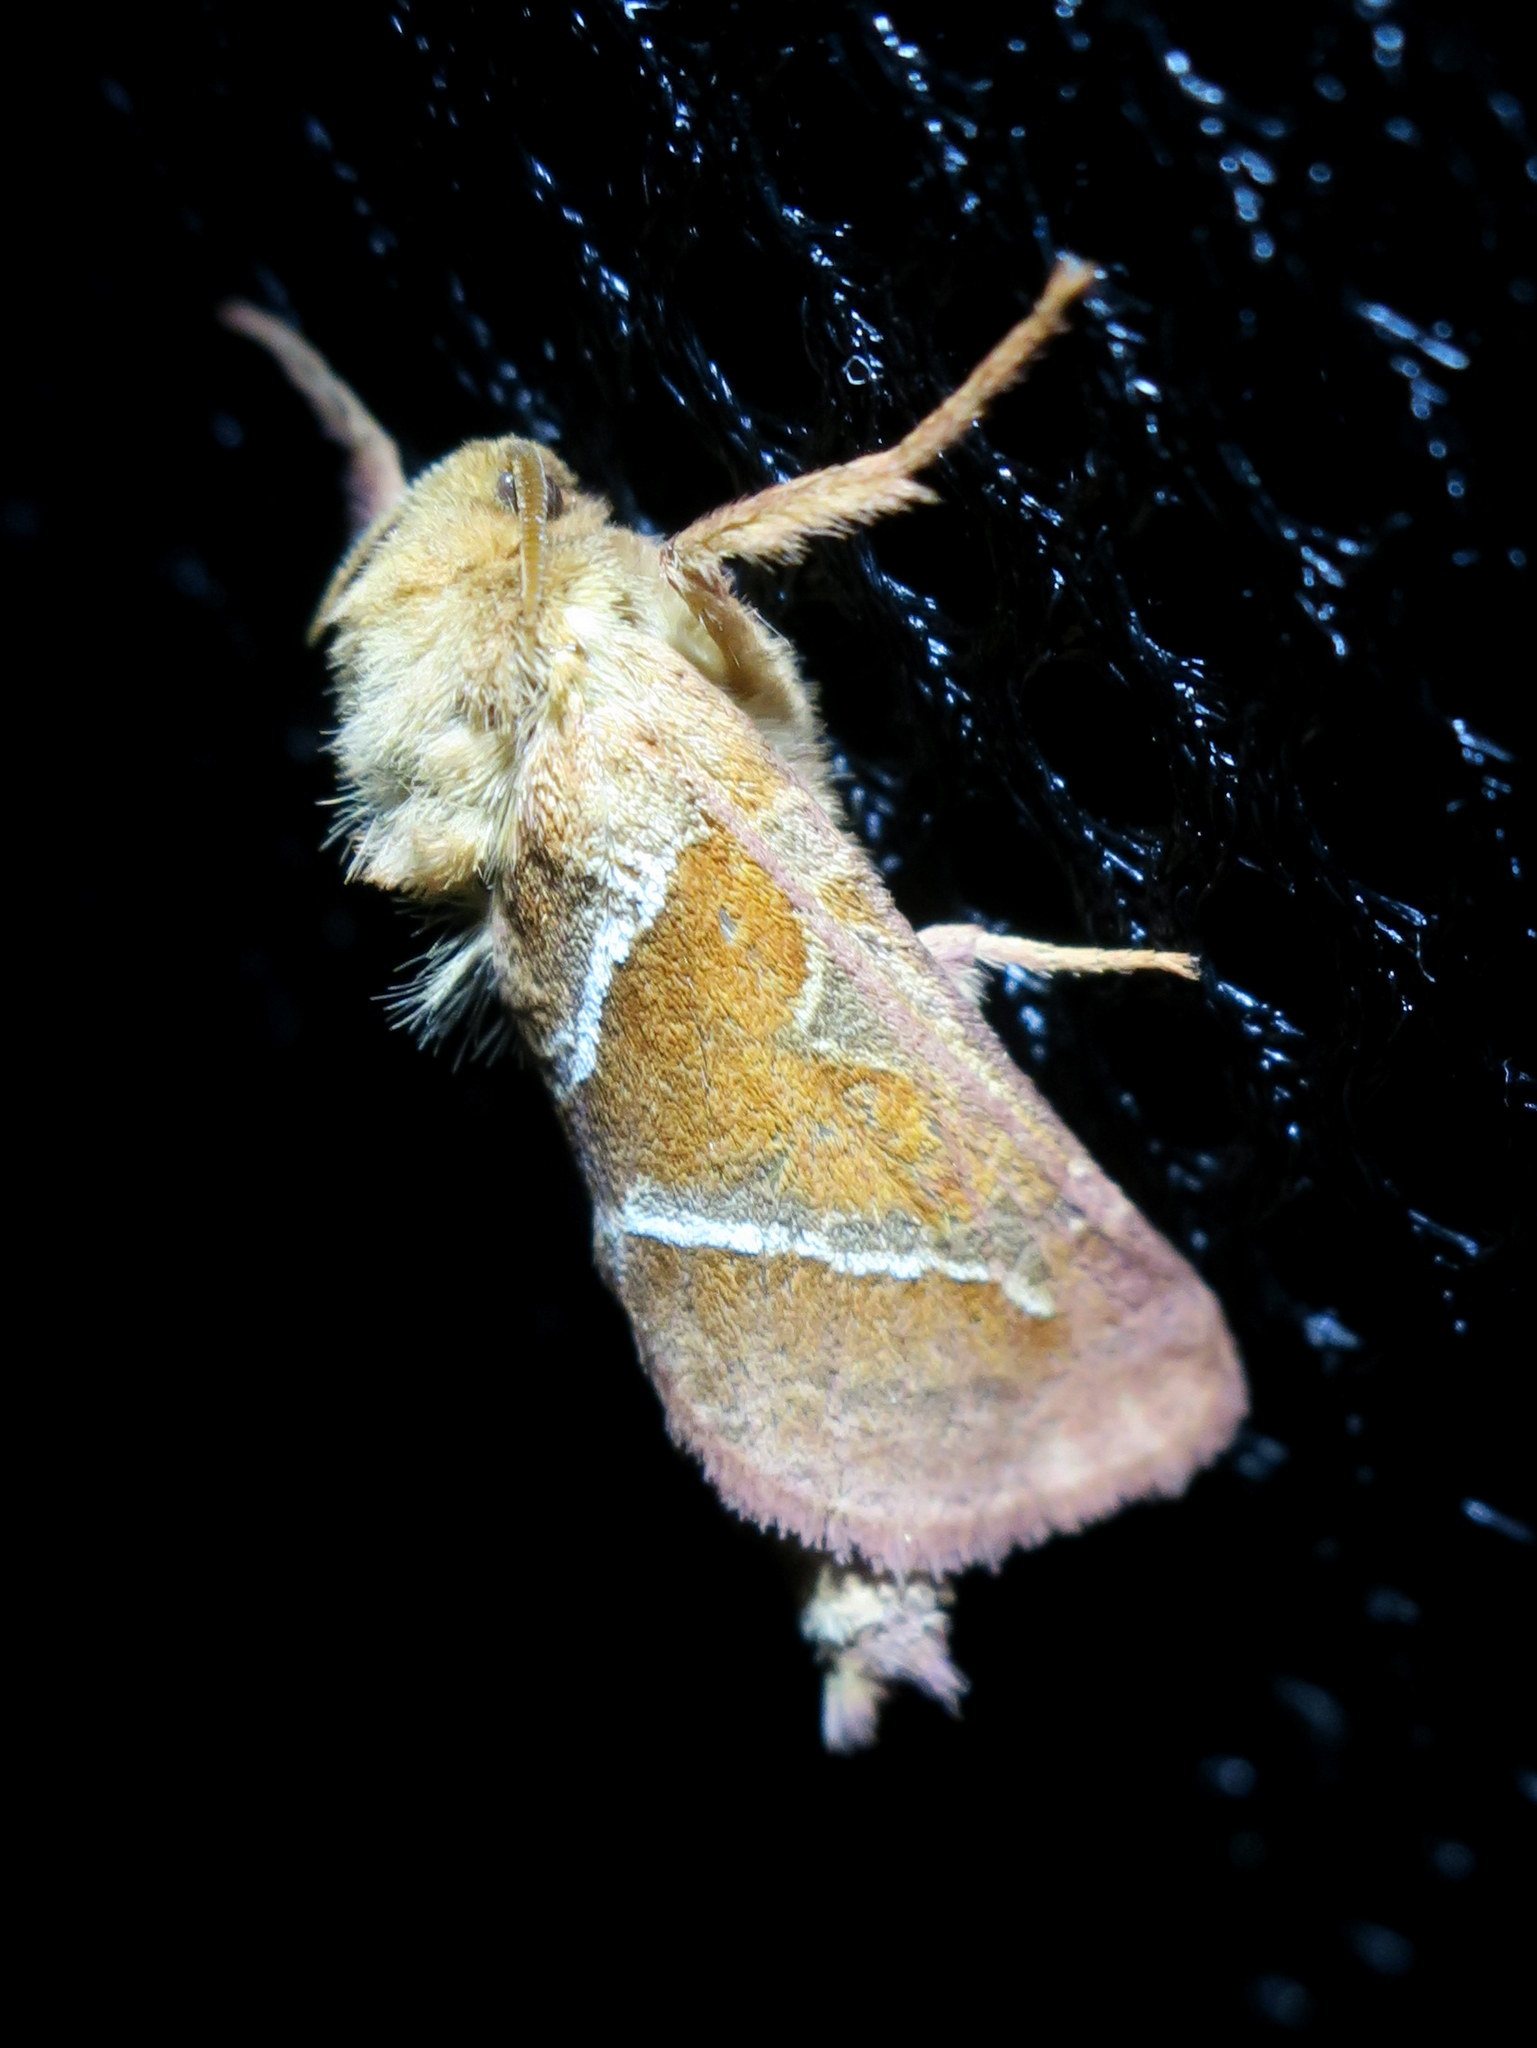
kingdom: Animalia
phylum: Arthropoda
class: Insecta
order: Lepidoptera
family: Hepialidae
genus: Triodia
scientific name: Triodia sylvina
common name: Orange swift
